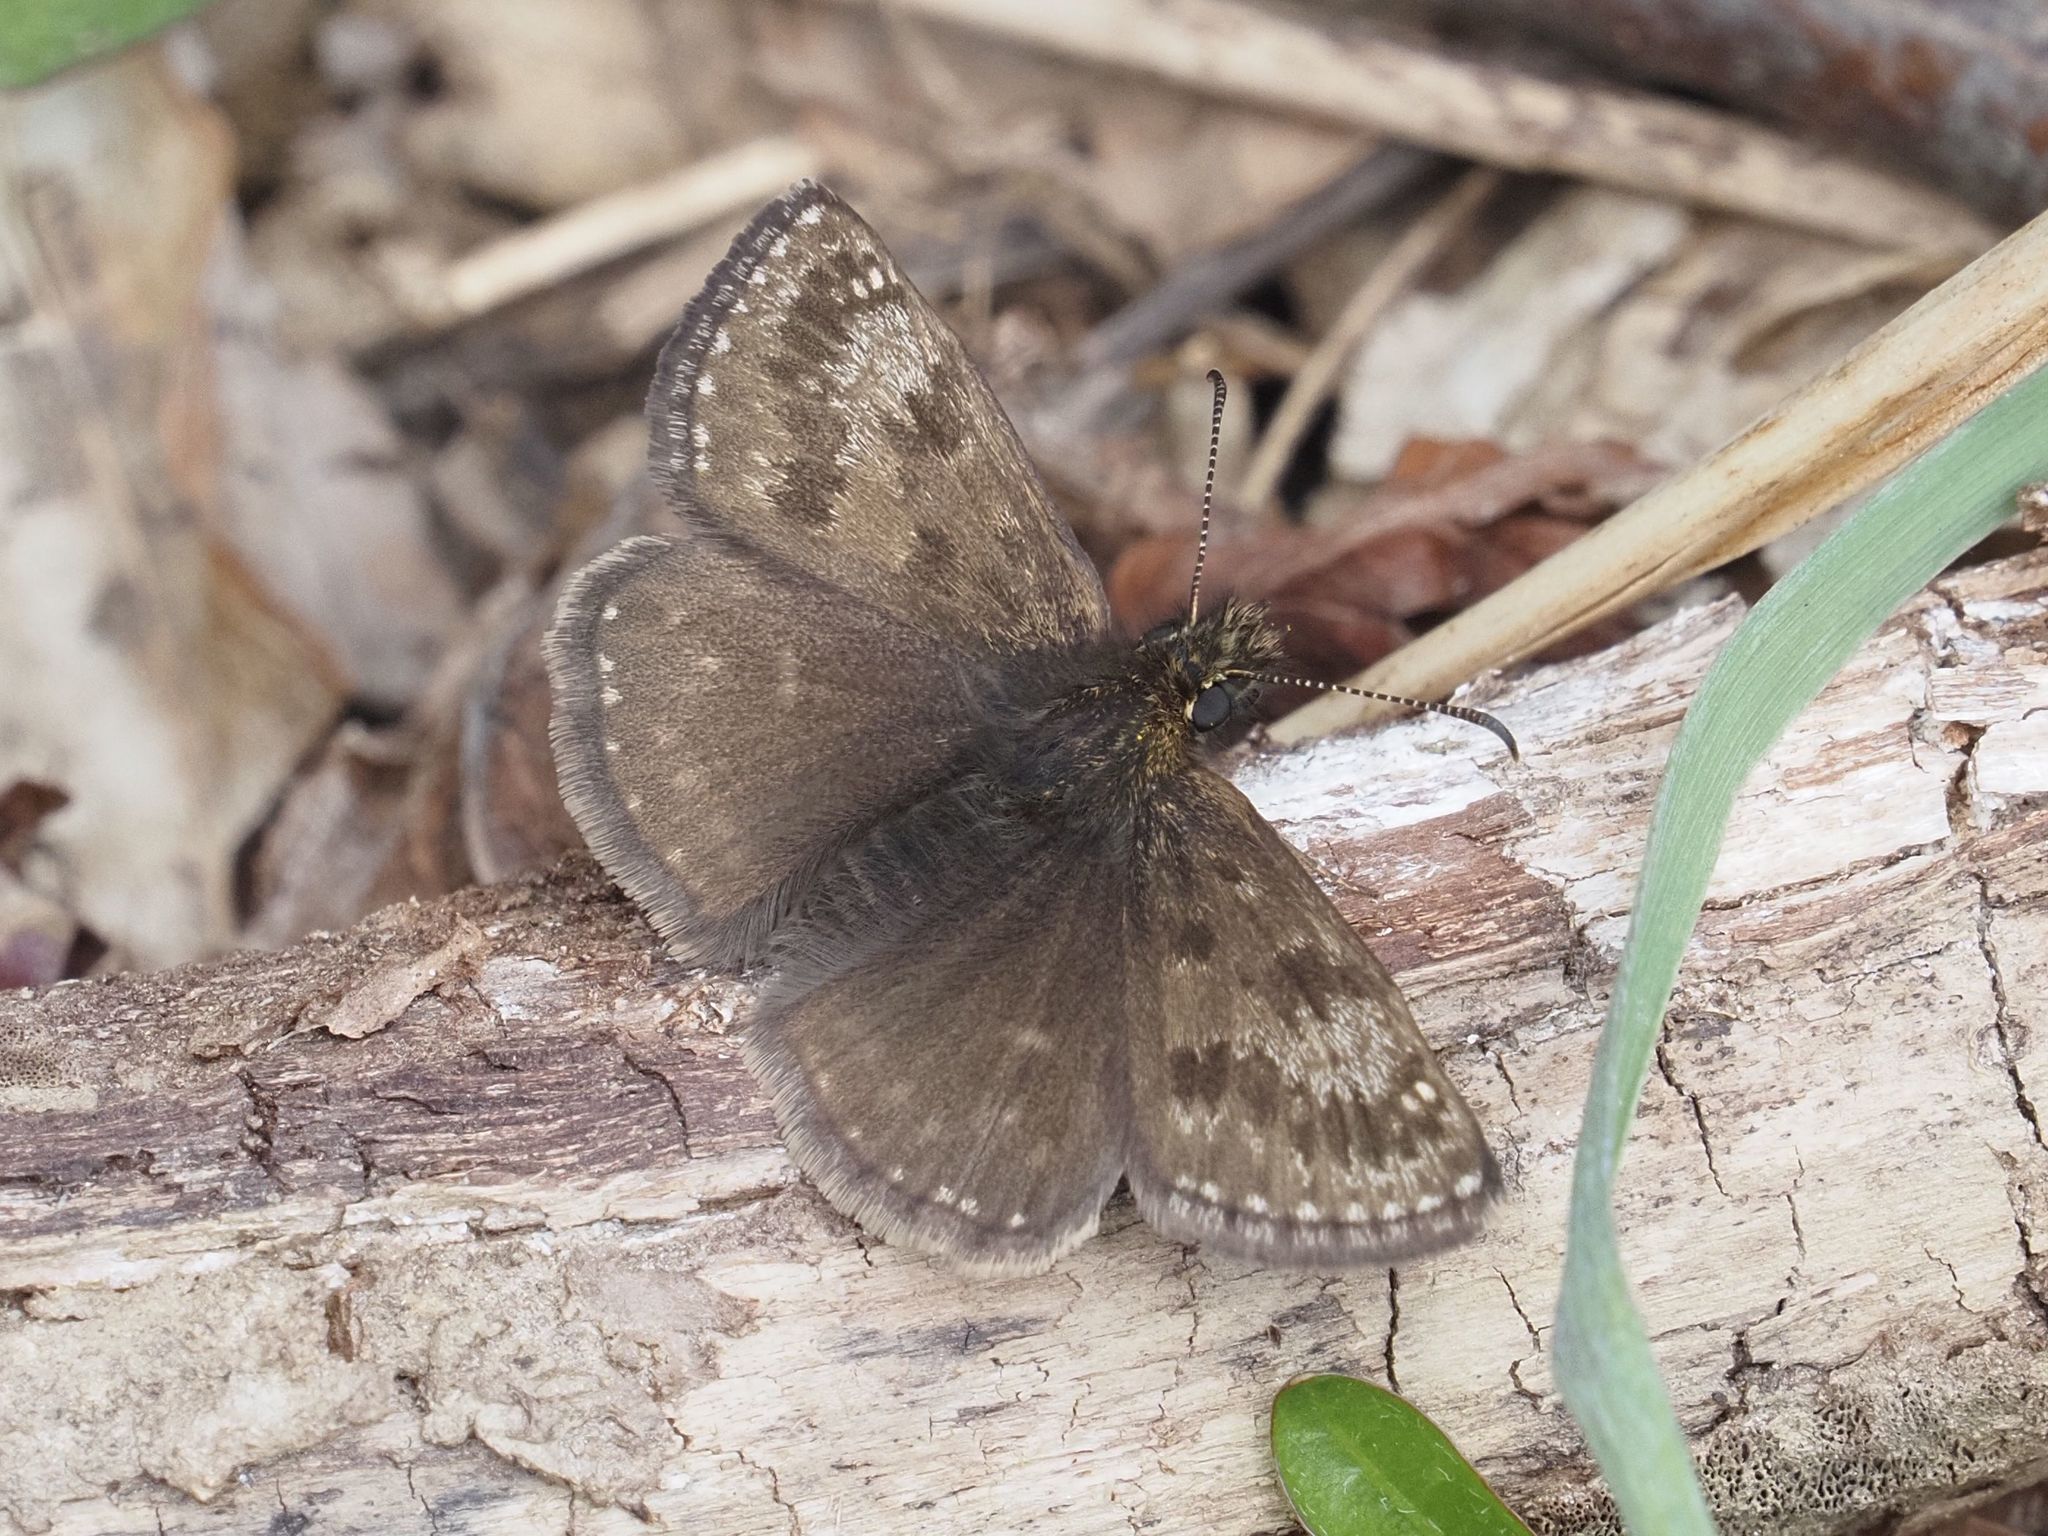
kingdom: Animalia
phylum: Arthropoda
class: Insecta
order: Lepidoptera
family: Hesperiidae
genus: Erynnis
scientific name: Erynnis tages
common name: Dingy skipper
